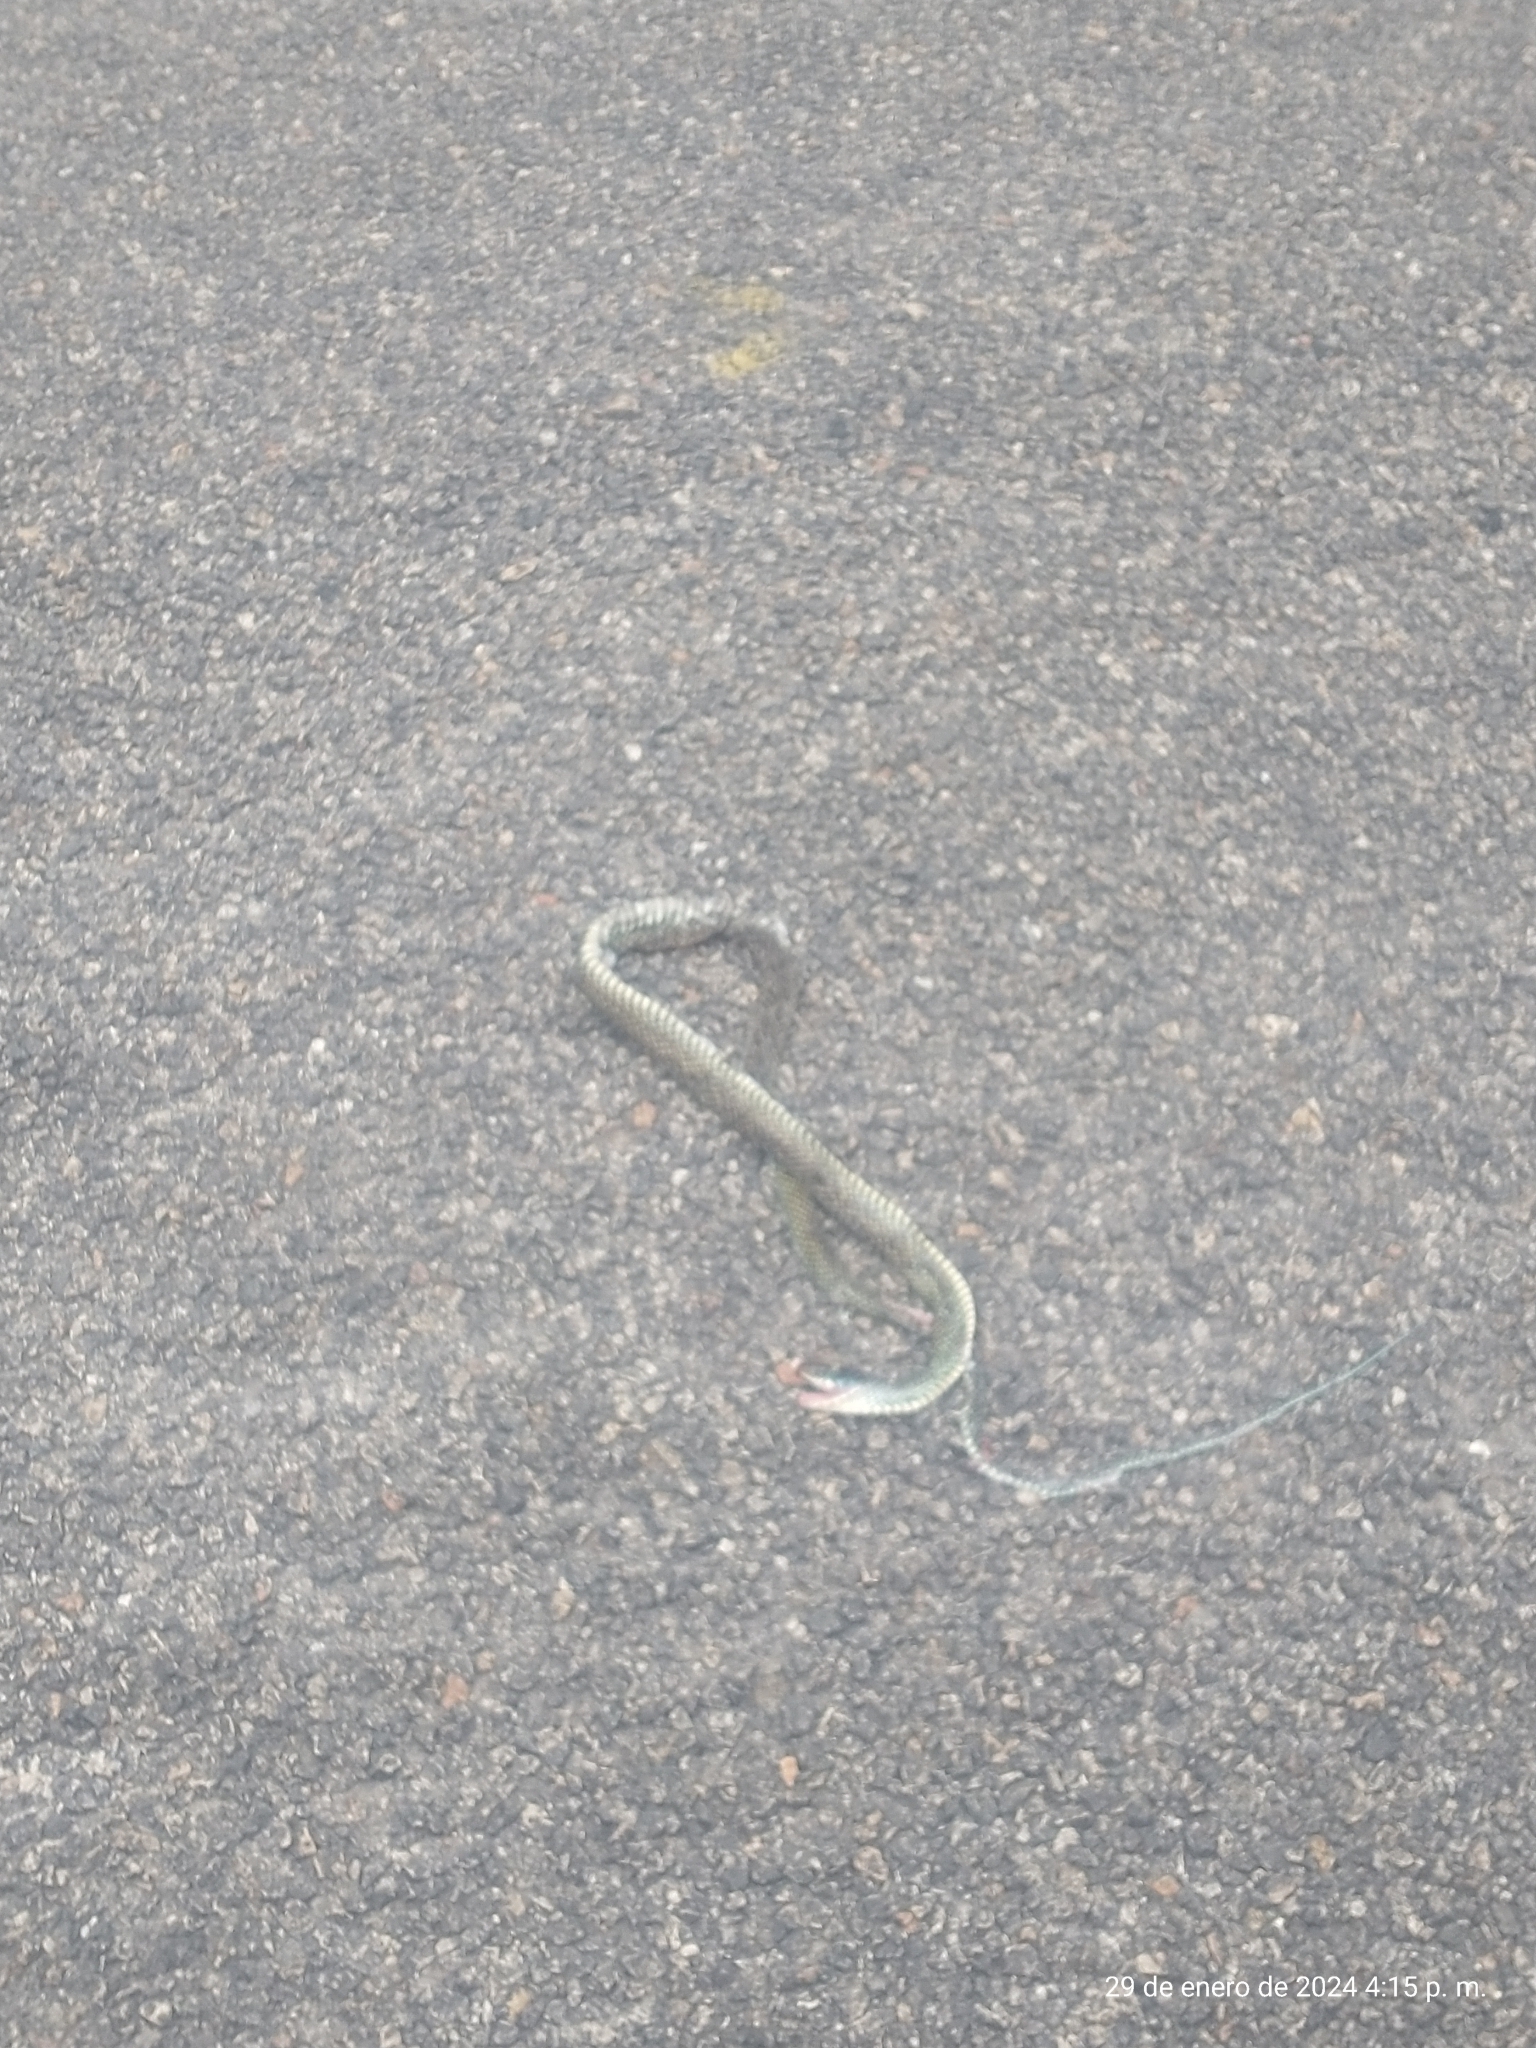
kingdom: Animalia
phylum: Chordata
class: Squamata
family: Colubridae
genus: Drymobius
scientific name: Drymobius margaritiferus
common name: Central american speckled racer
